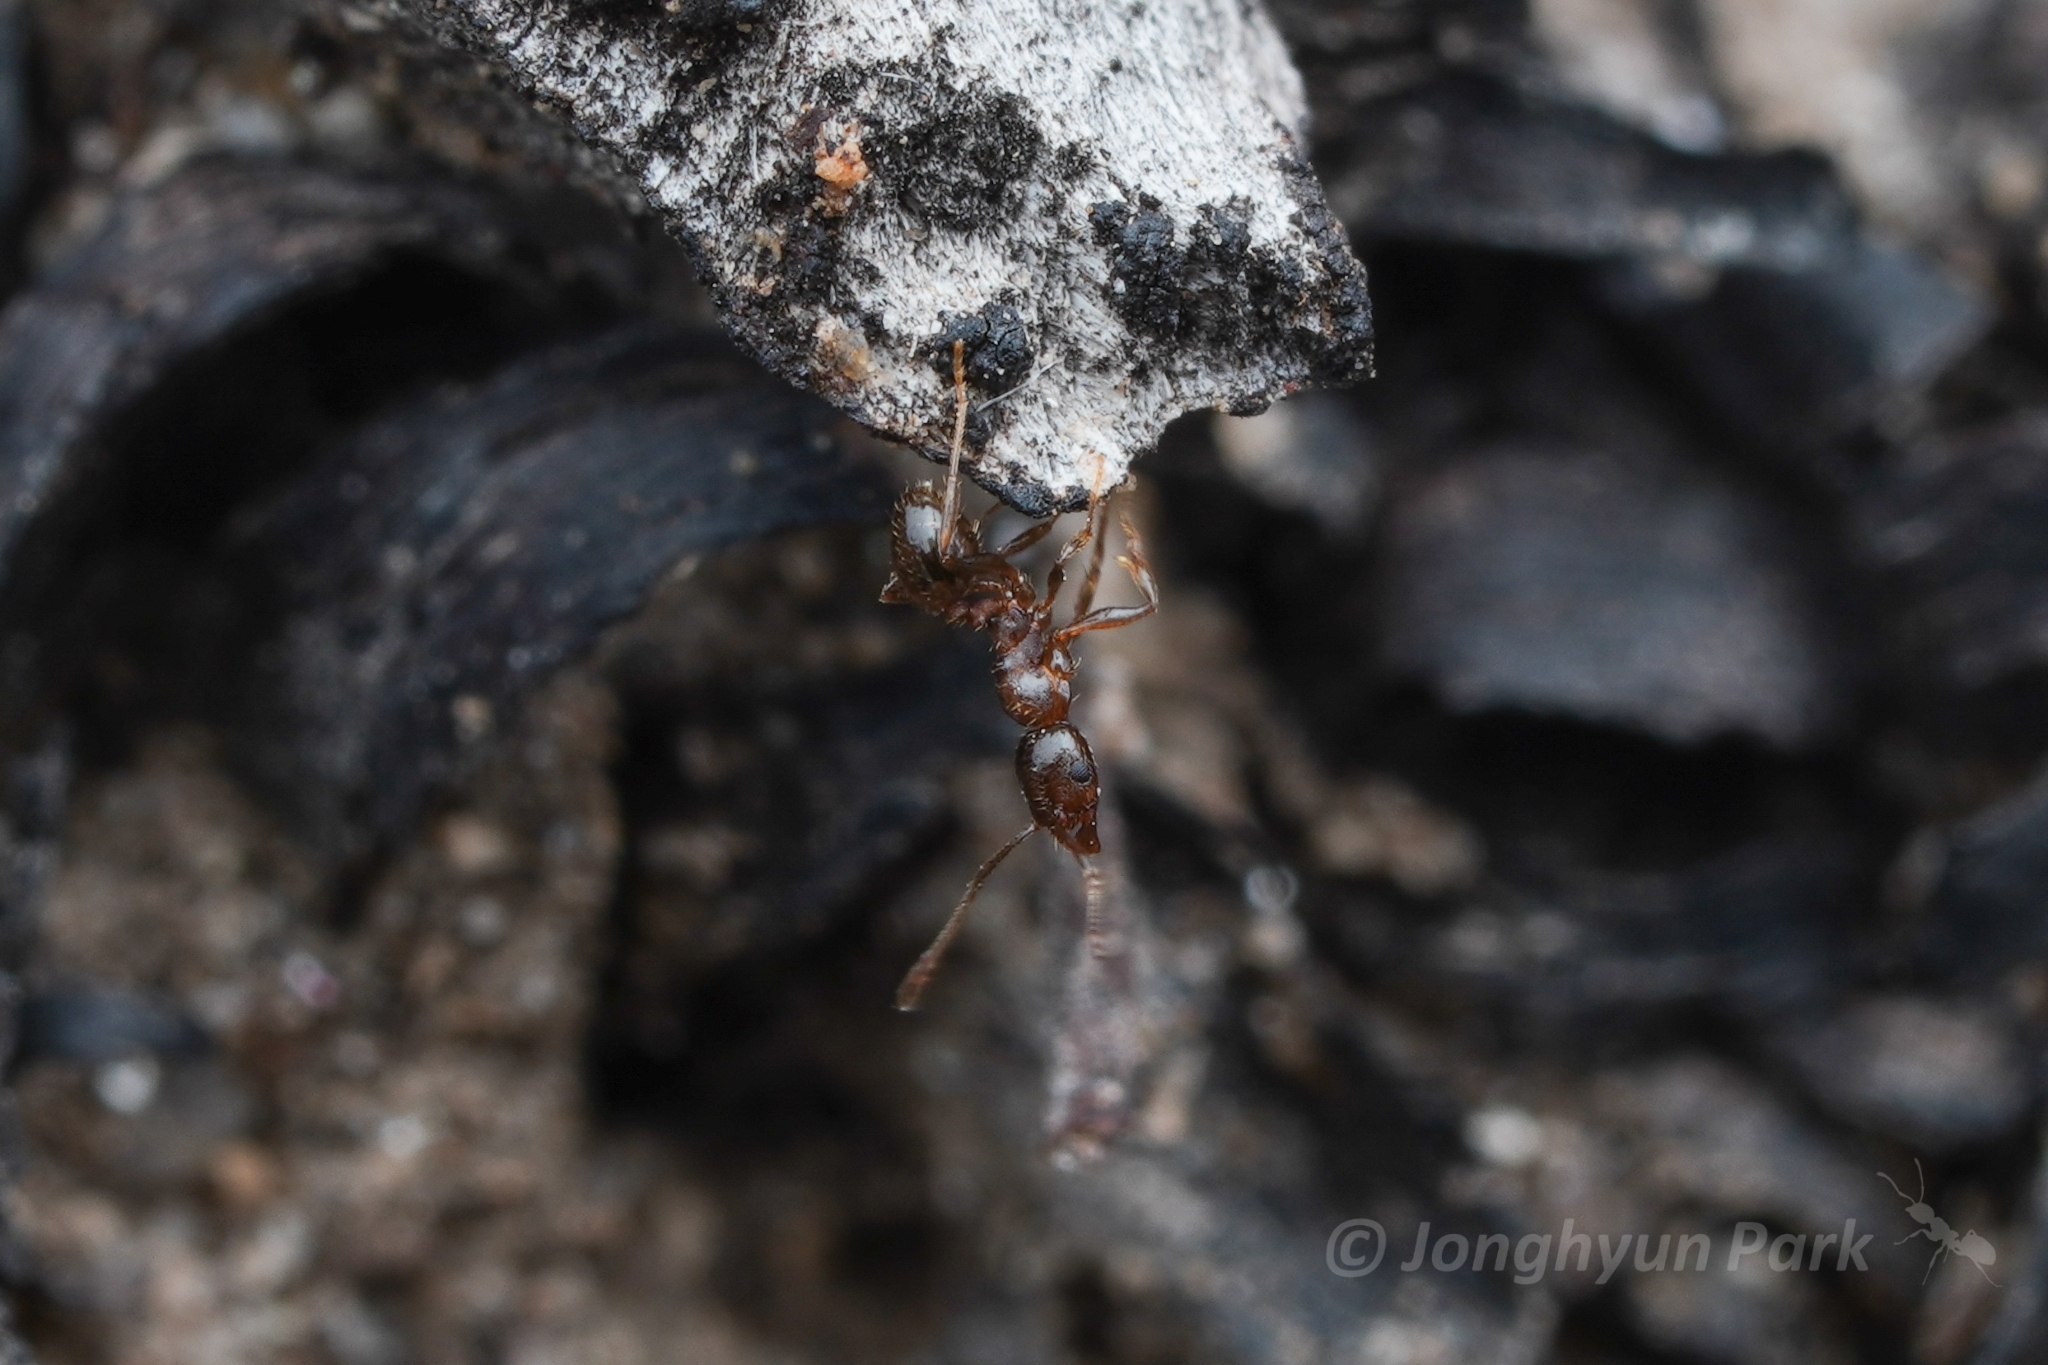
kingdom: Animalia
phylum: Arthropoda
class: Insecta
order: Hymenoptera
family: Formicidae
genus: Pheidole
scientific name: Pheidole
